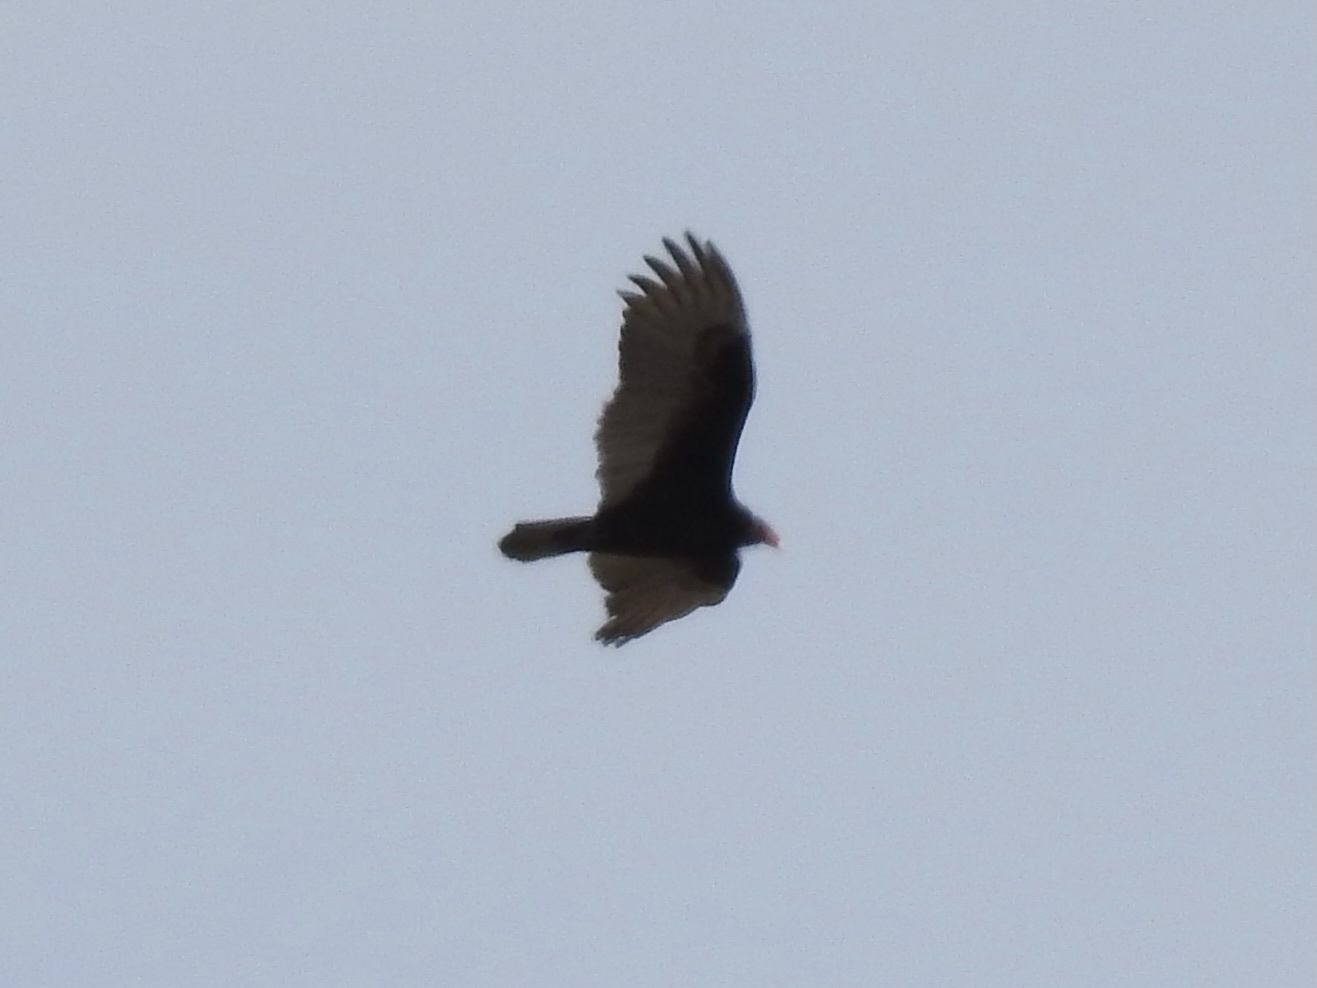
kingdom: Animalia
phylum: Chordata
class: Aves
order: Accipitriformes
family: Cathartidae
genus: Cathartes
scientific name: Cathartes aura
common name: Turkey vulture
